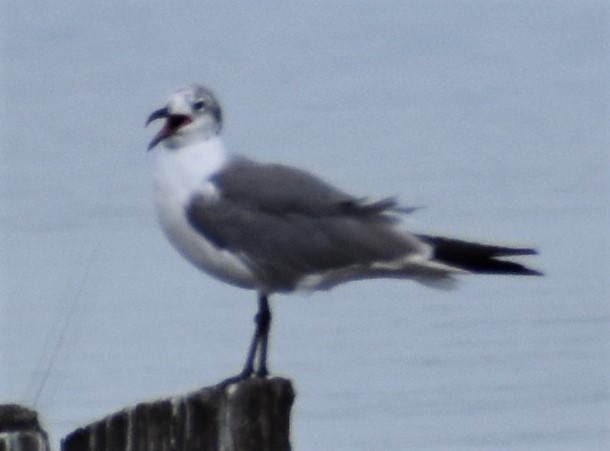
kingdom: Animalia
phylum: Chordata
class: Aves
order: Charadriiformes
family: Laridae
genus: Leucophaeus
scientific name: Leucophaeus atricilla
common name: Laughing gull
